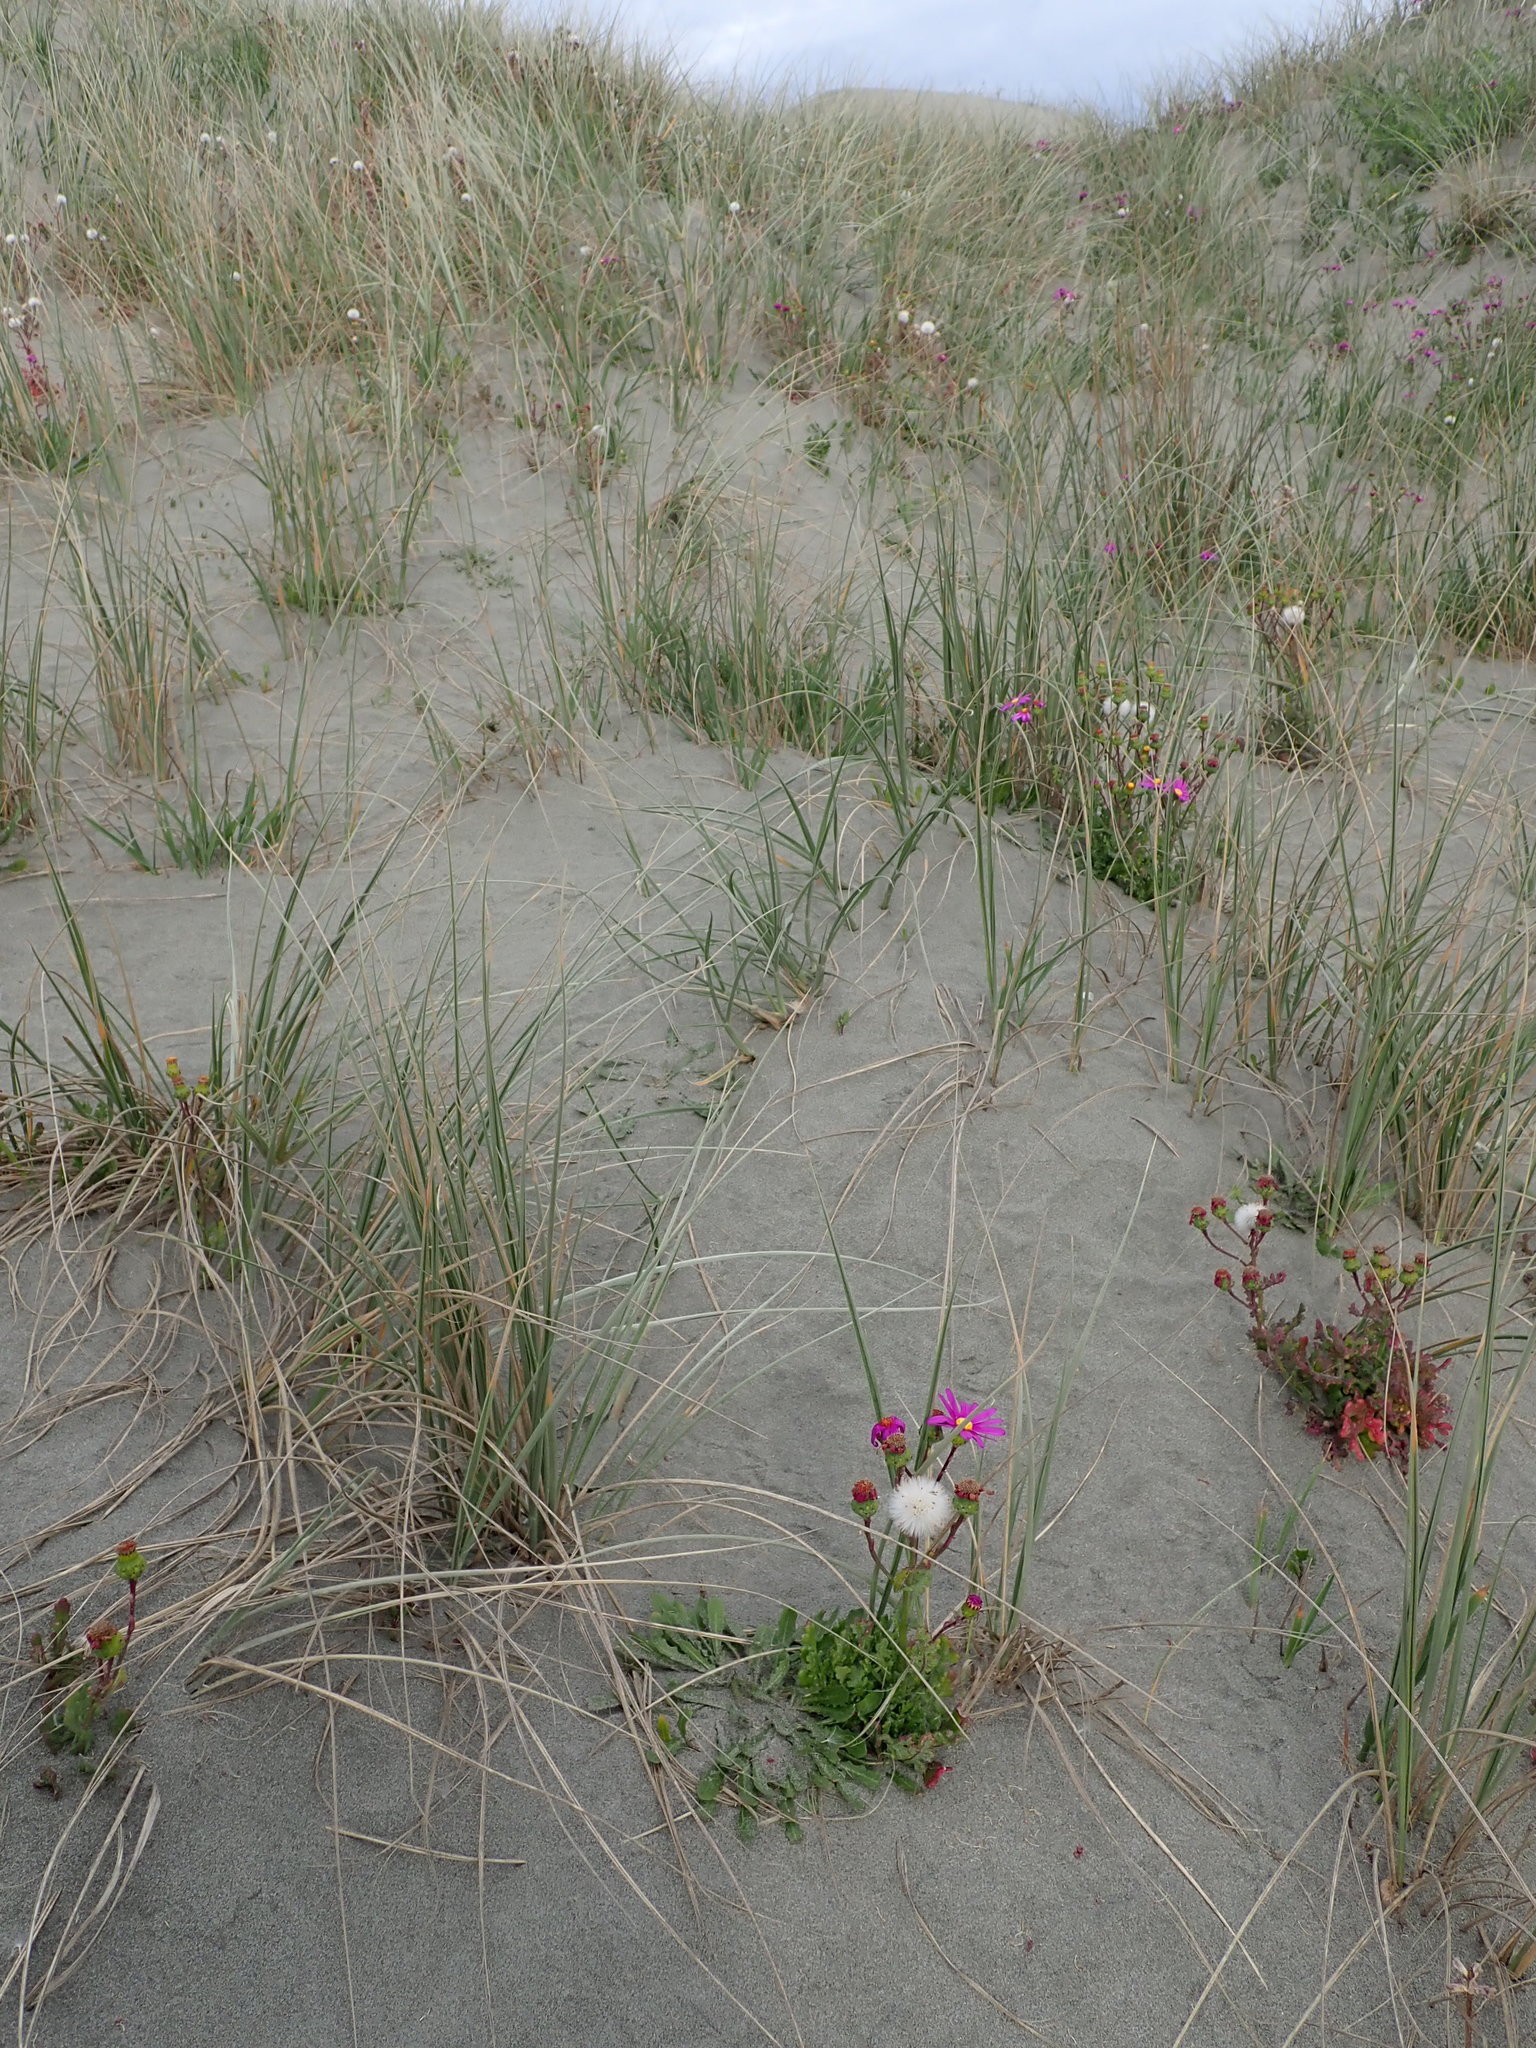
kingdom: Plantae
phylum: Tracheophyta
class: Magnoliopsida
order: Asterales
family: Asteraceae
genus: Senecio
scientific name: Senecio elegans
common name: Purple groundsel
